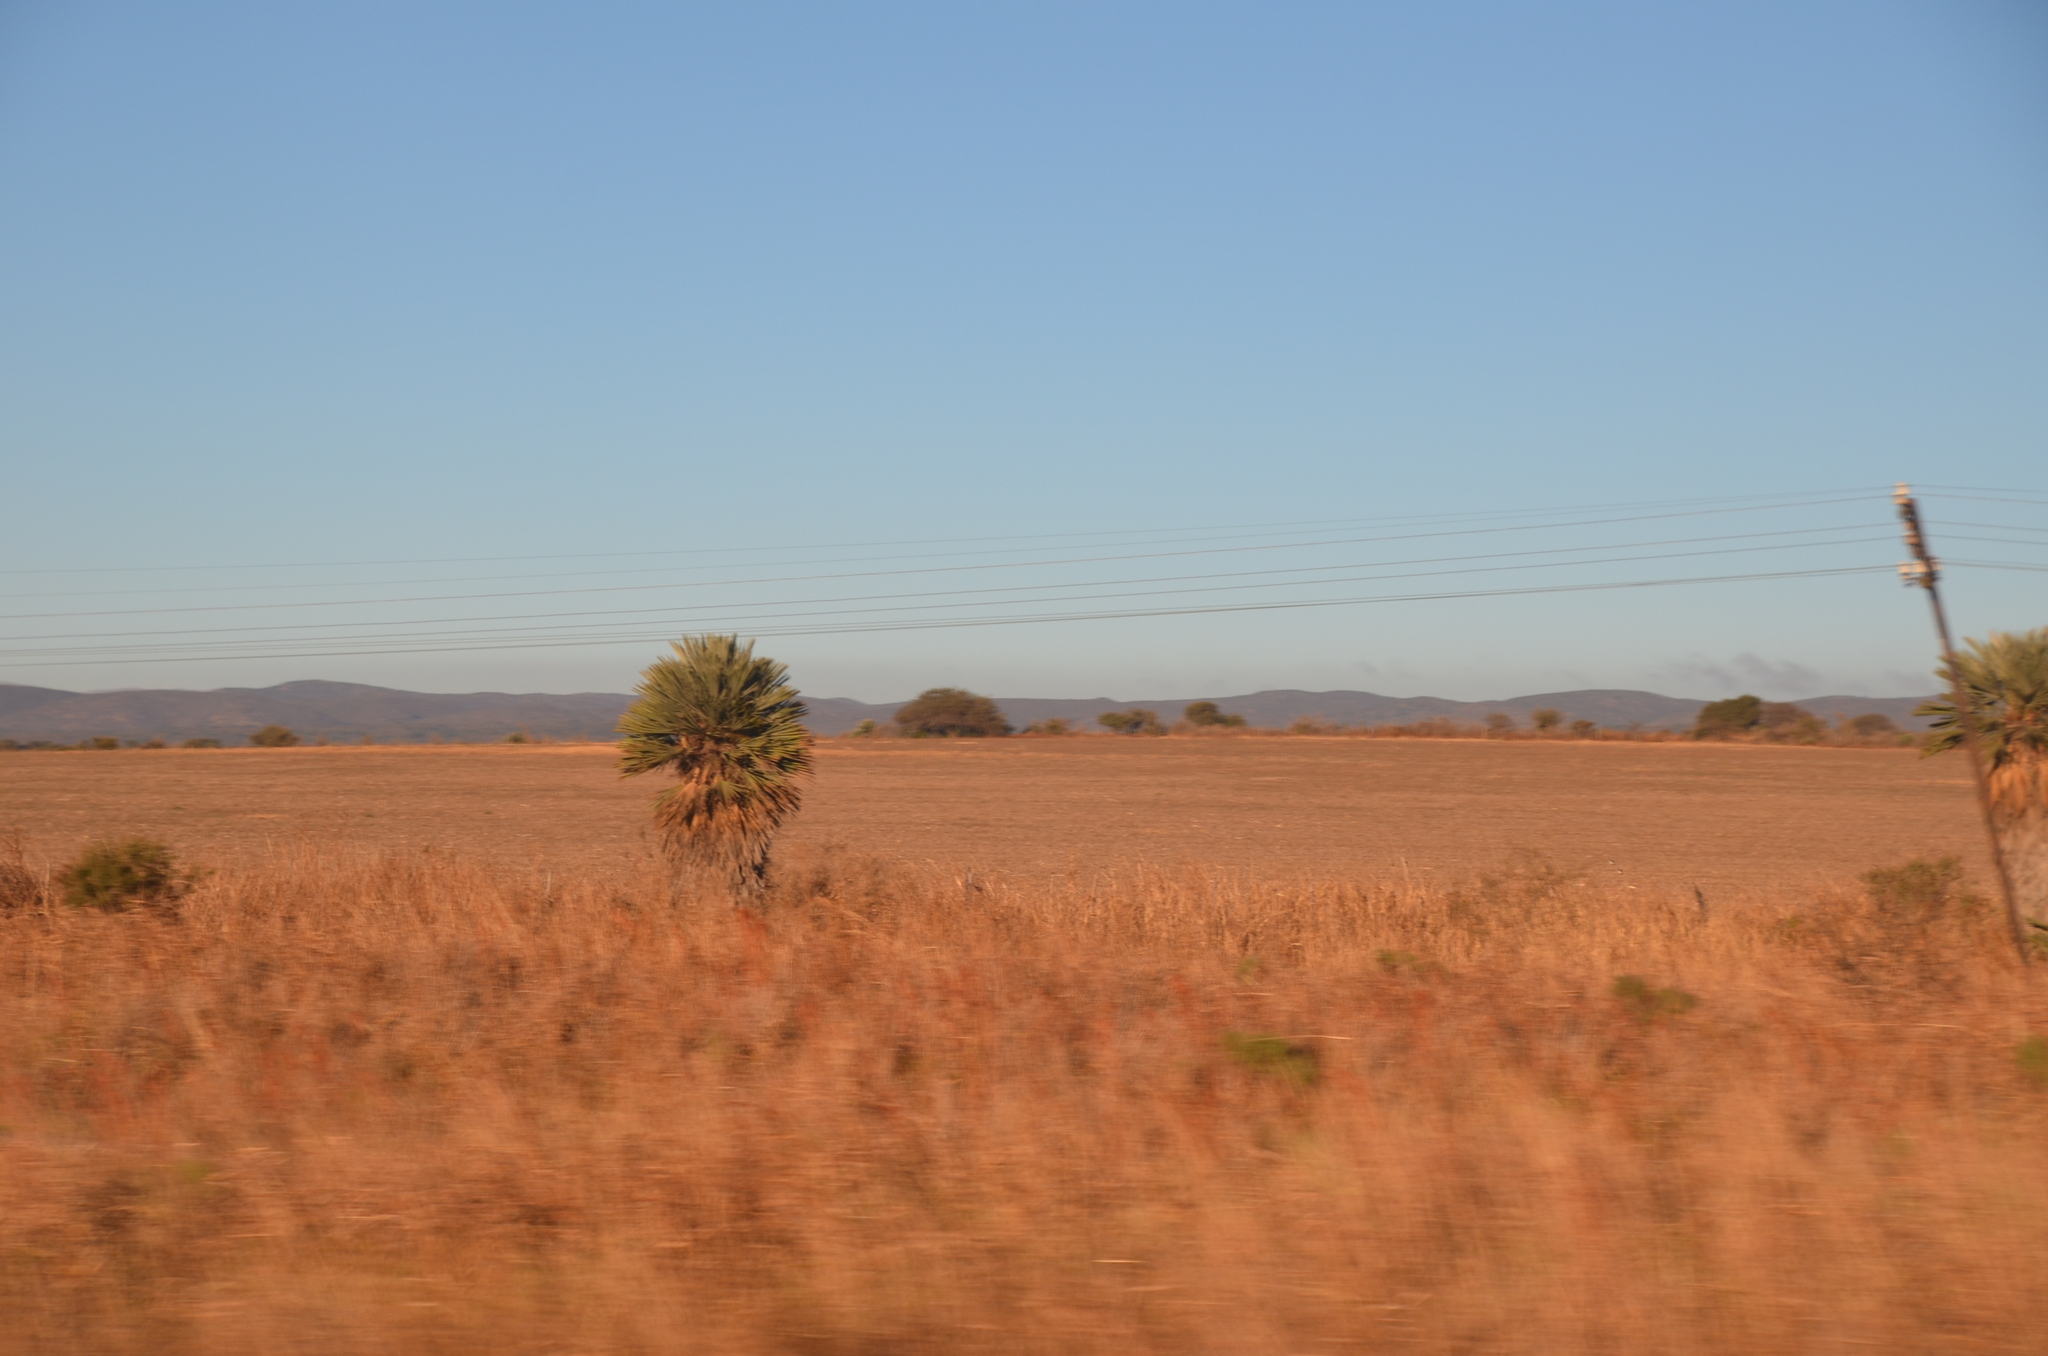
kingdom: Plantae
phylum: Tracheophyta
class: Liliopsida
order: Arecales
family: Arecaceae
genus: Trithrinax
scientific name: Trithrinax campestris
